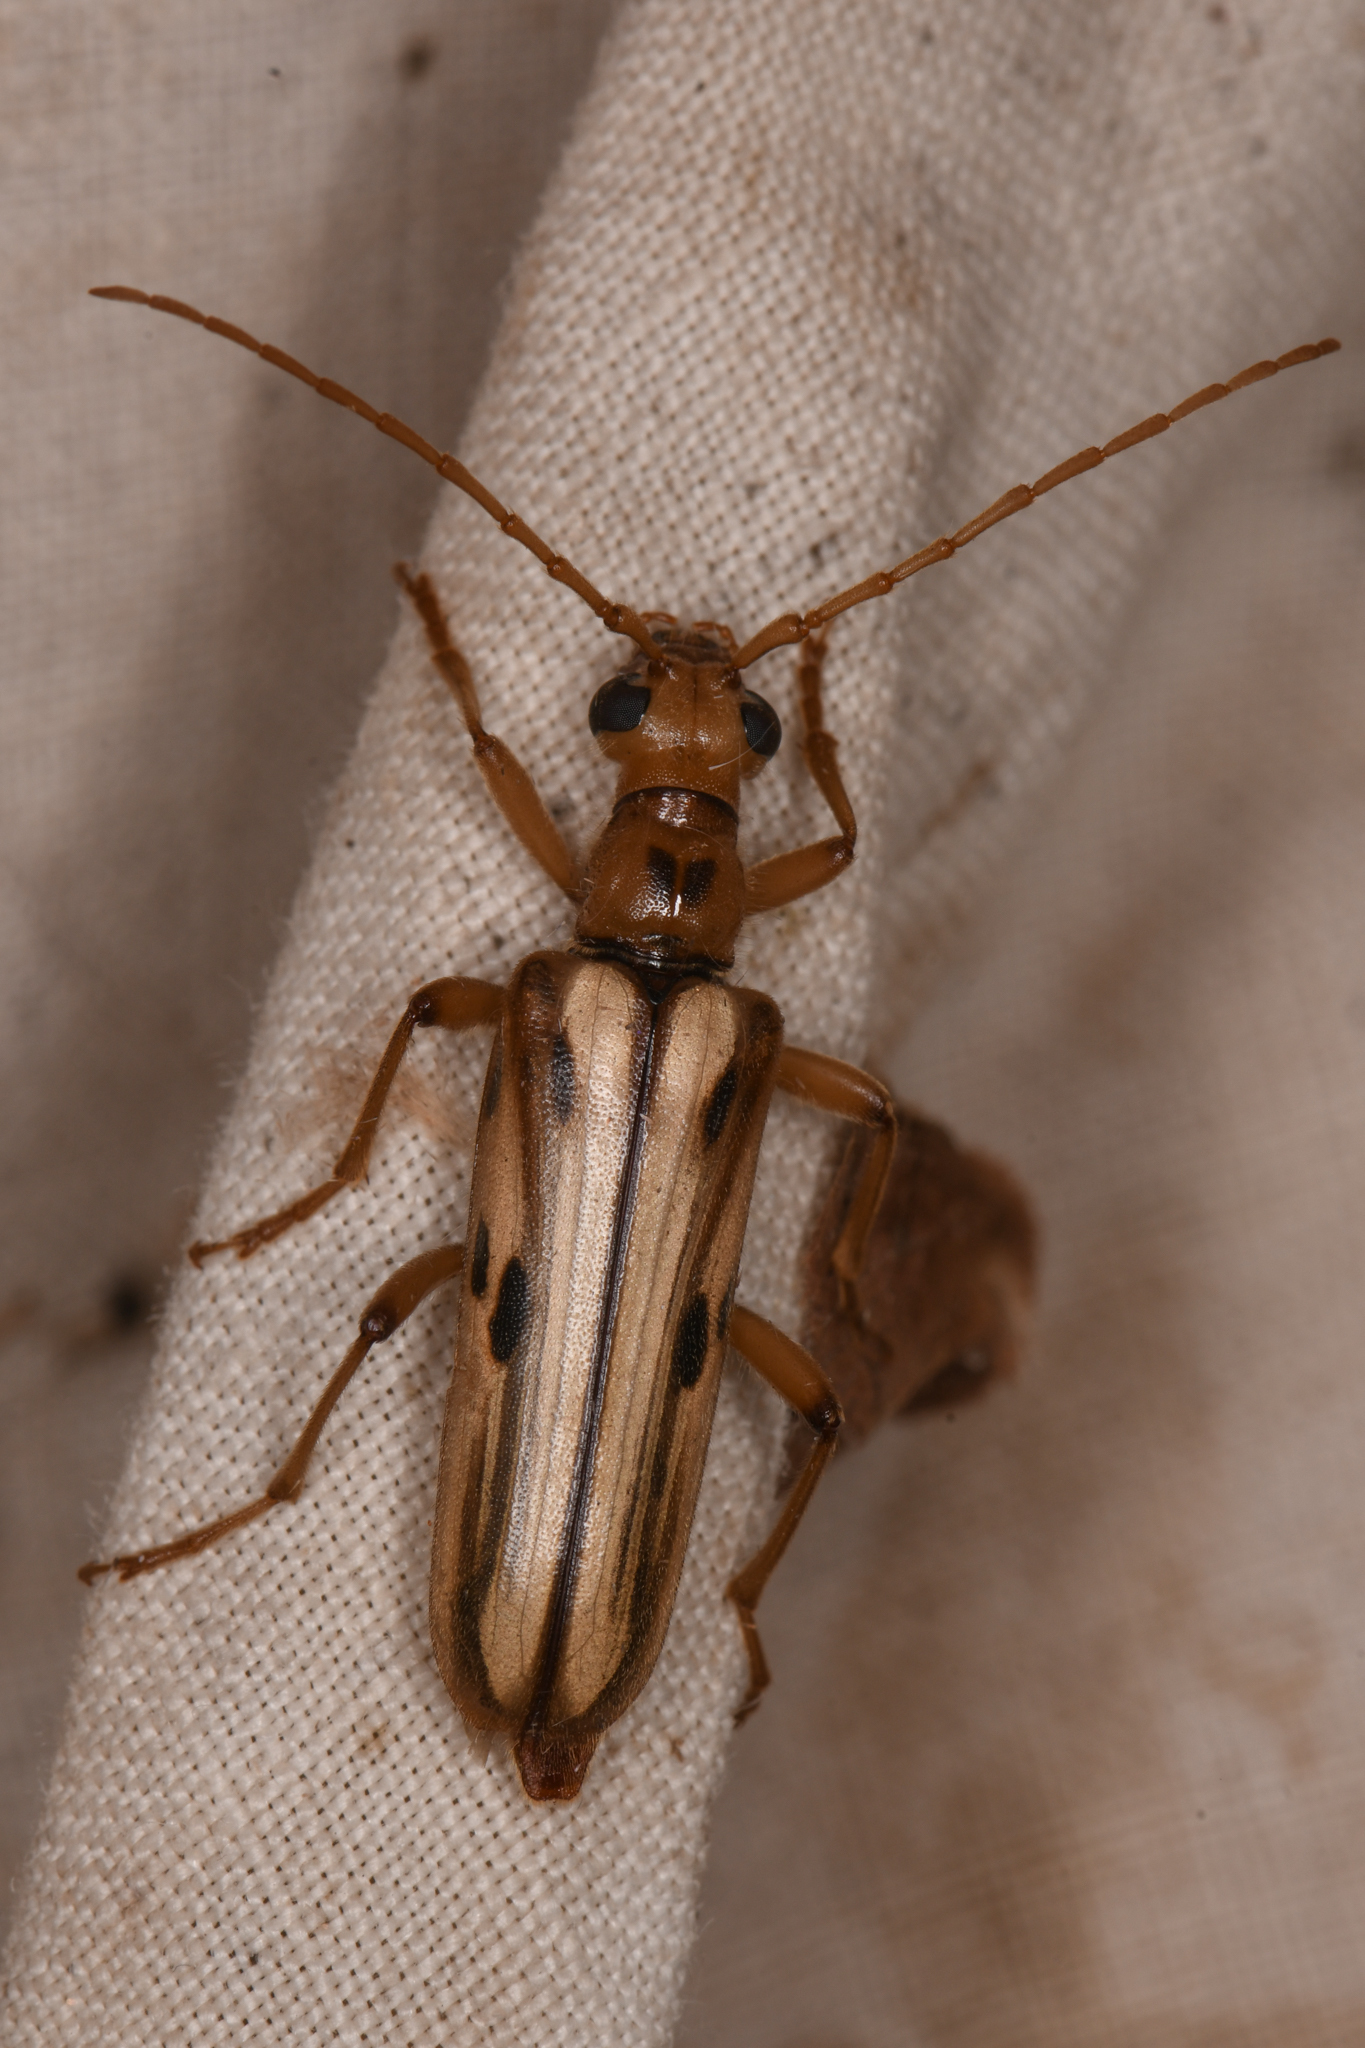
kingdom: Animalia
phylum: Arthropoda
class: Insecta
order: Coleoptera
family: Cerambycidae
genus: Ortholeptura
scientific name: Ortholeptura valida
